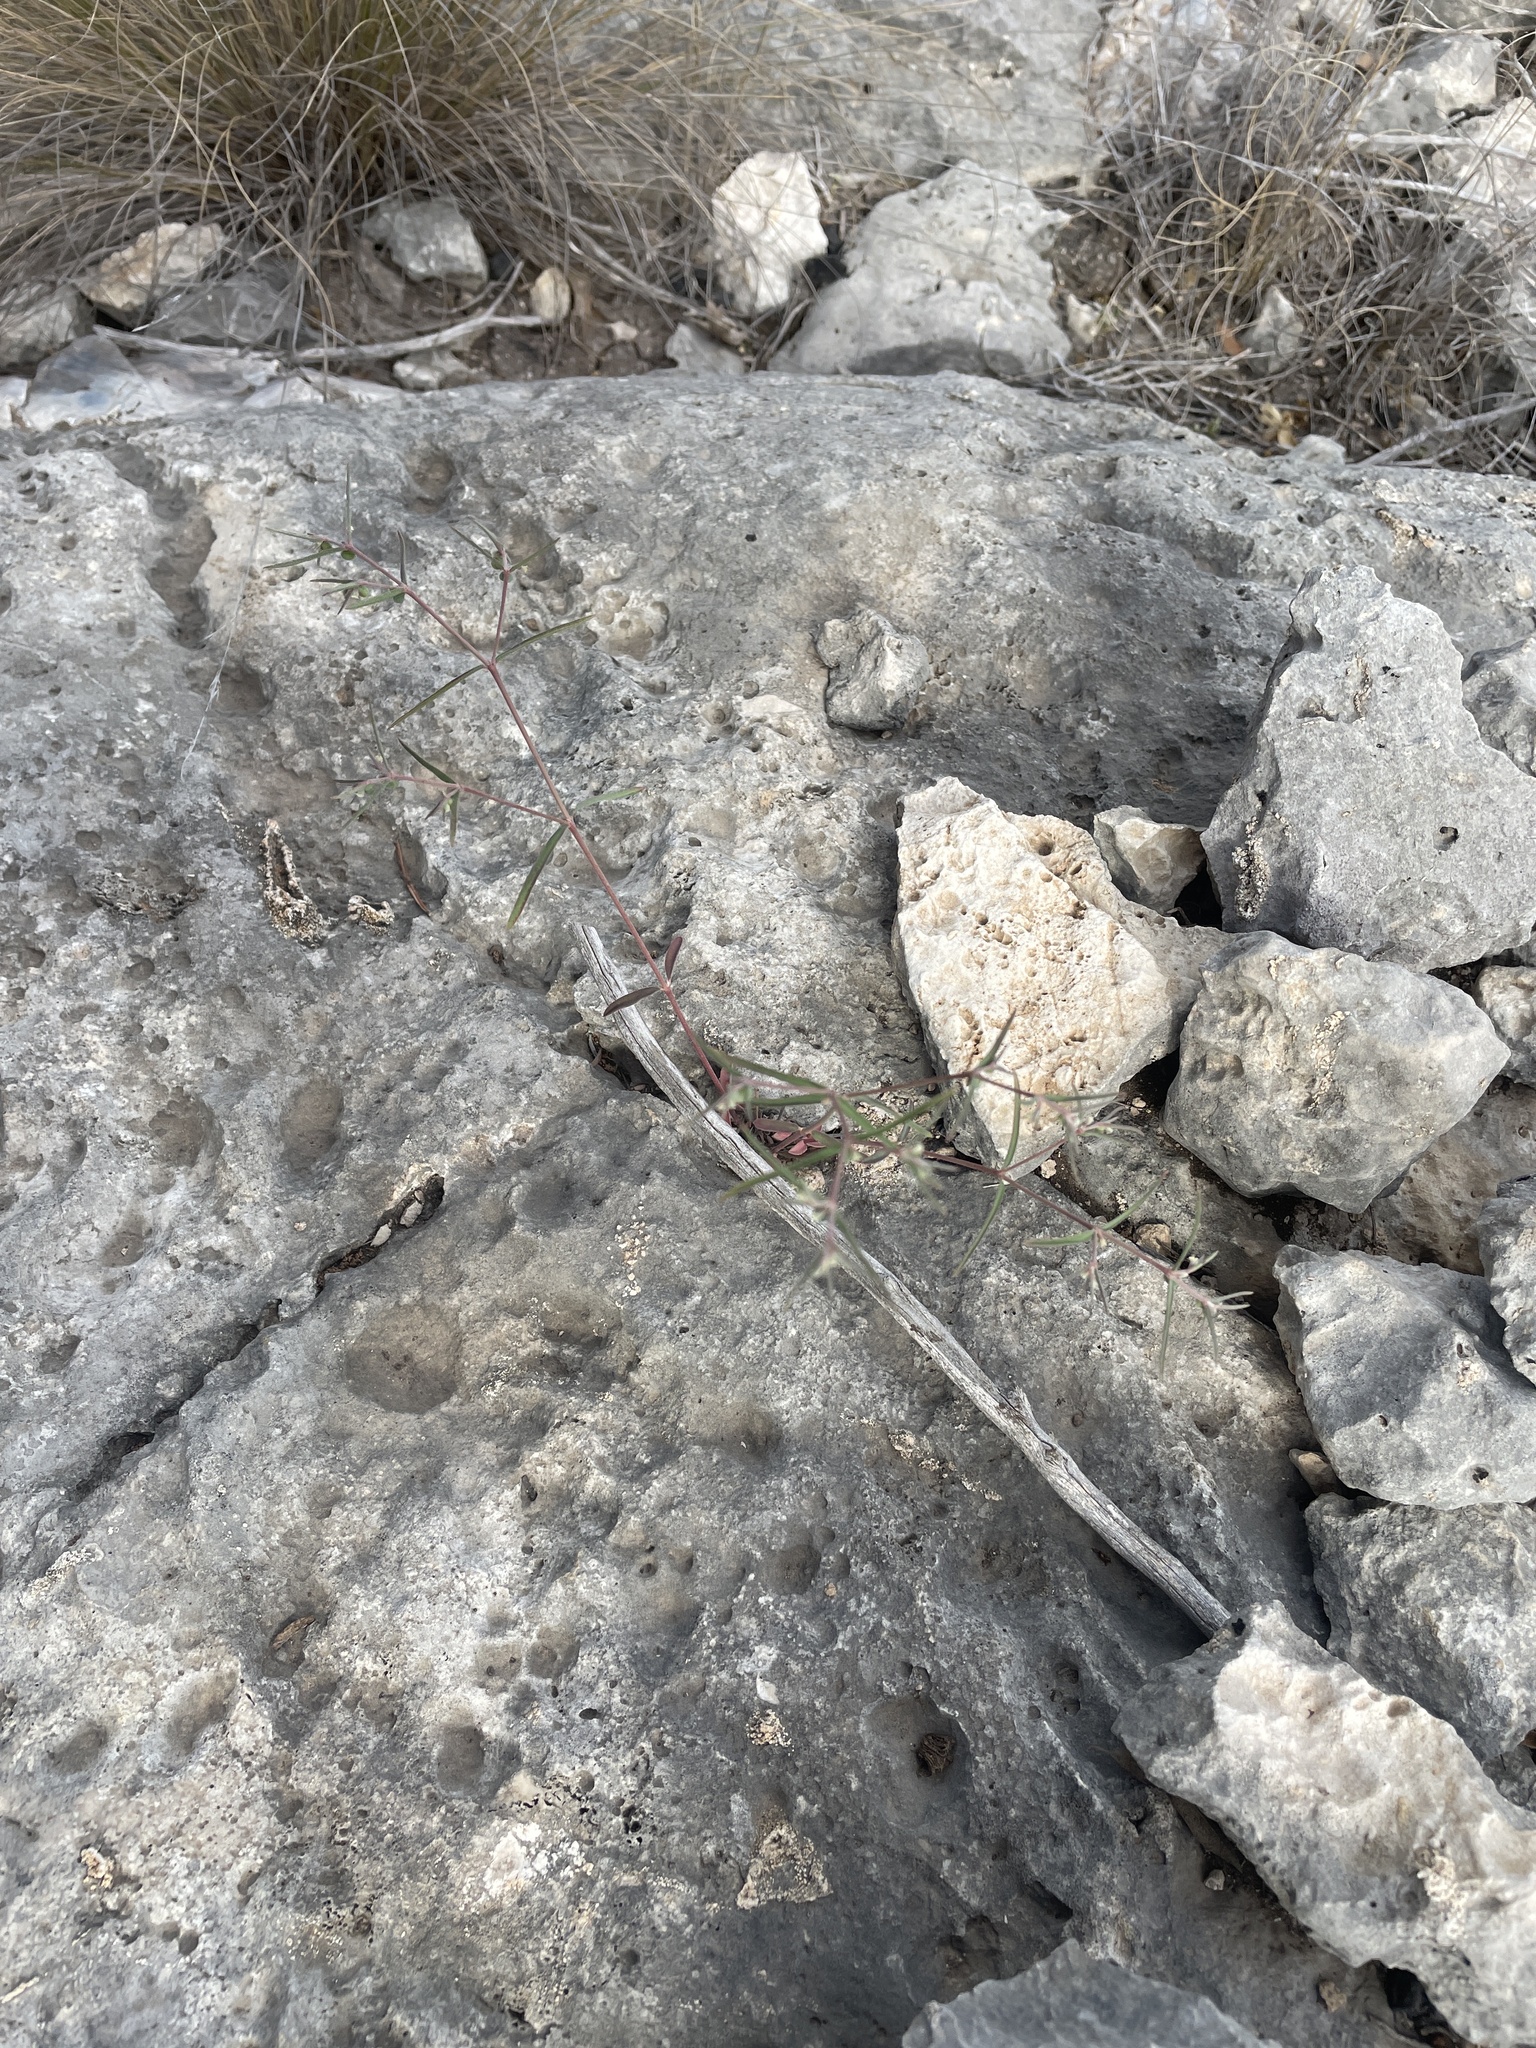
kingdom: Plantae
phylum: Tracheophyta
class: Magnoliopsida
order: Malpighiales
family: Euphorbiaceae
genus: Euphorbia
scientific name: Euphorbia angusta
